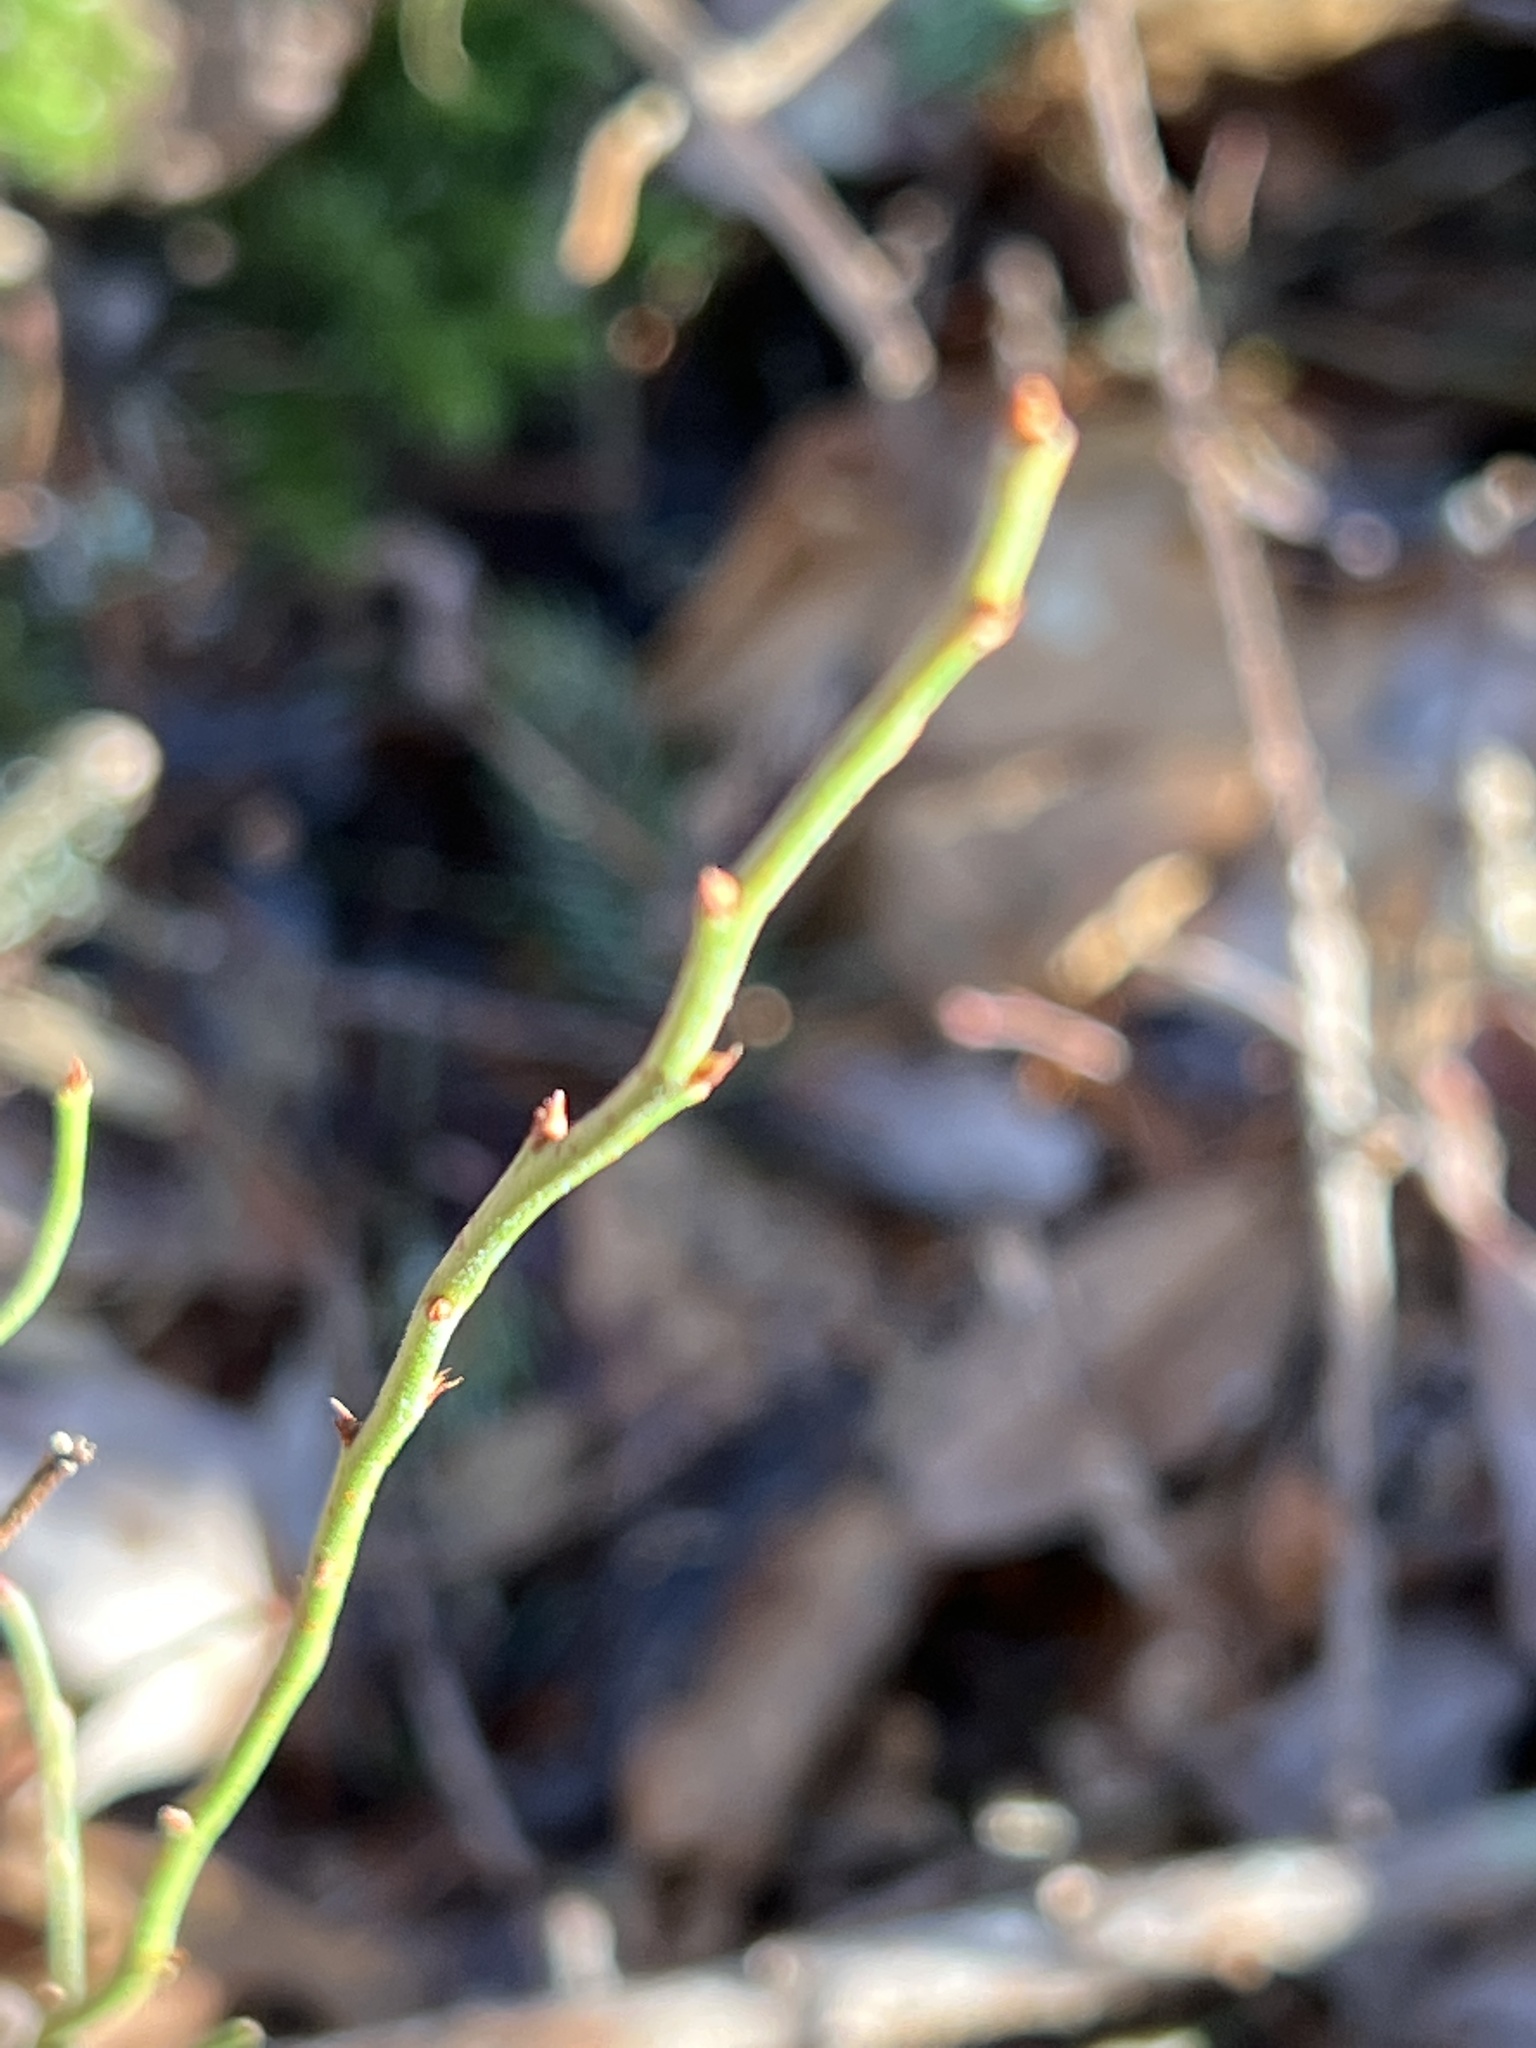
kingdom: Plantae
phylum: Tracheophyta
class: Magnoliopsida
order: Ericales
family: Ericaceae
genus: Vaccinium
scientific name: Vaccinium angustifolium
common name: Early lowbush blueberry
